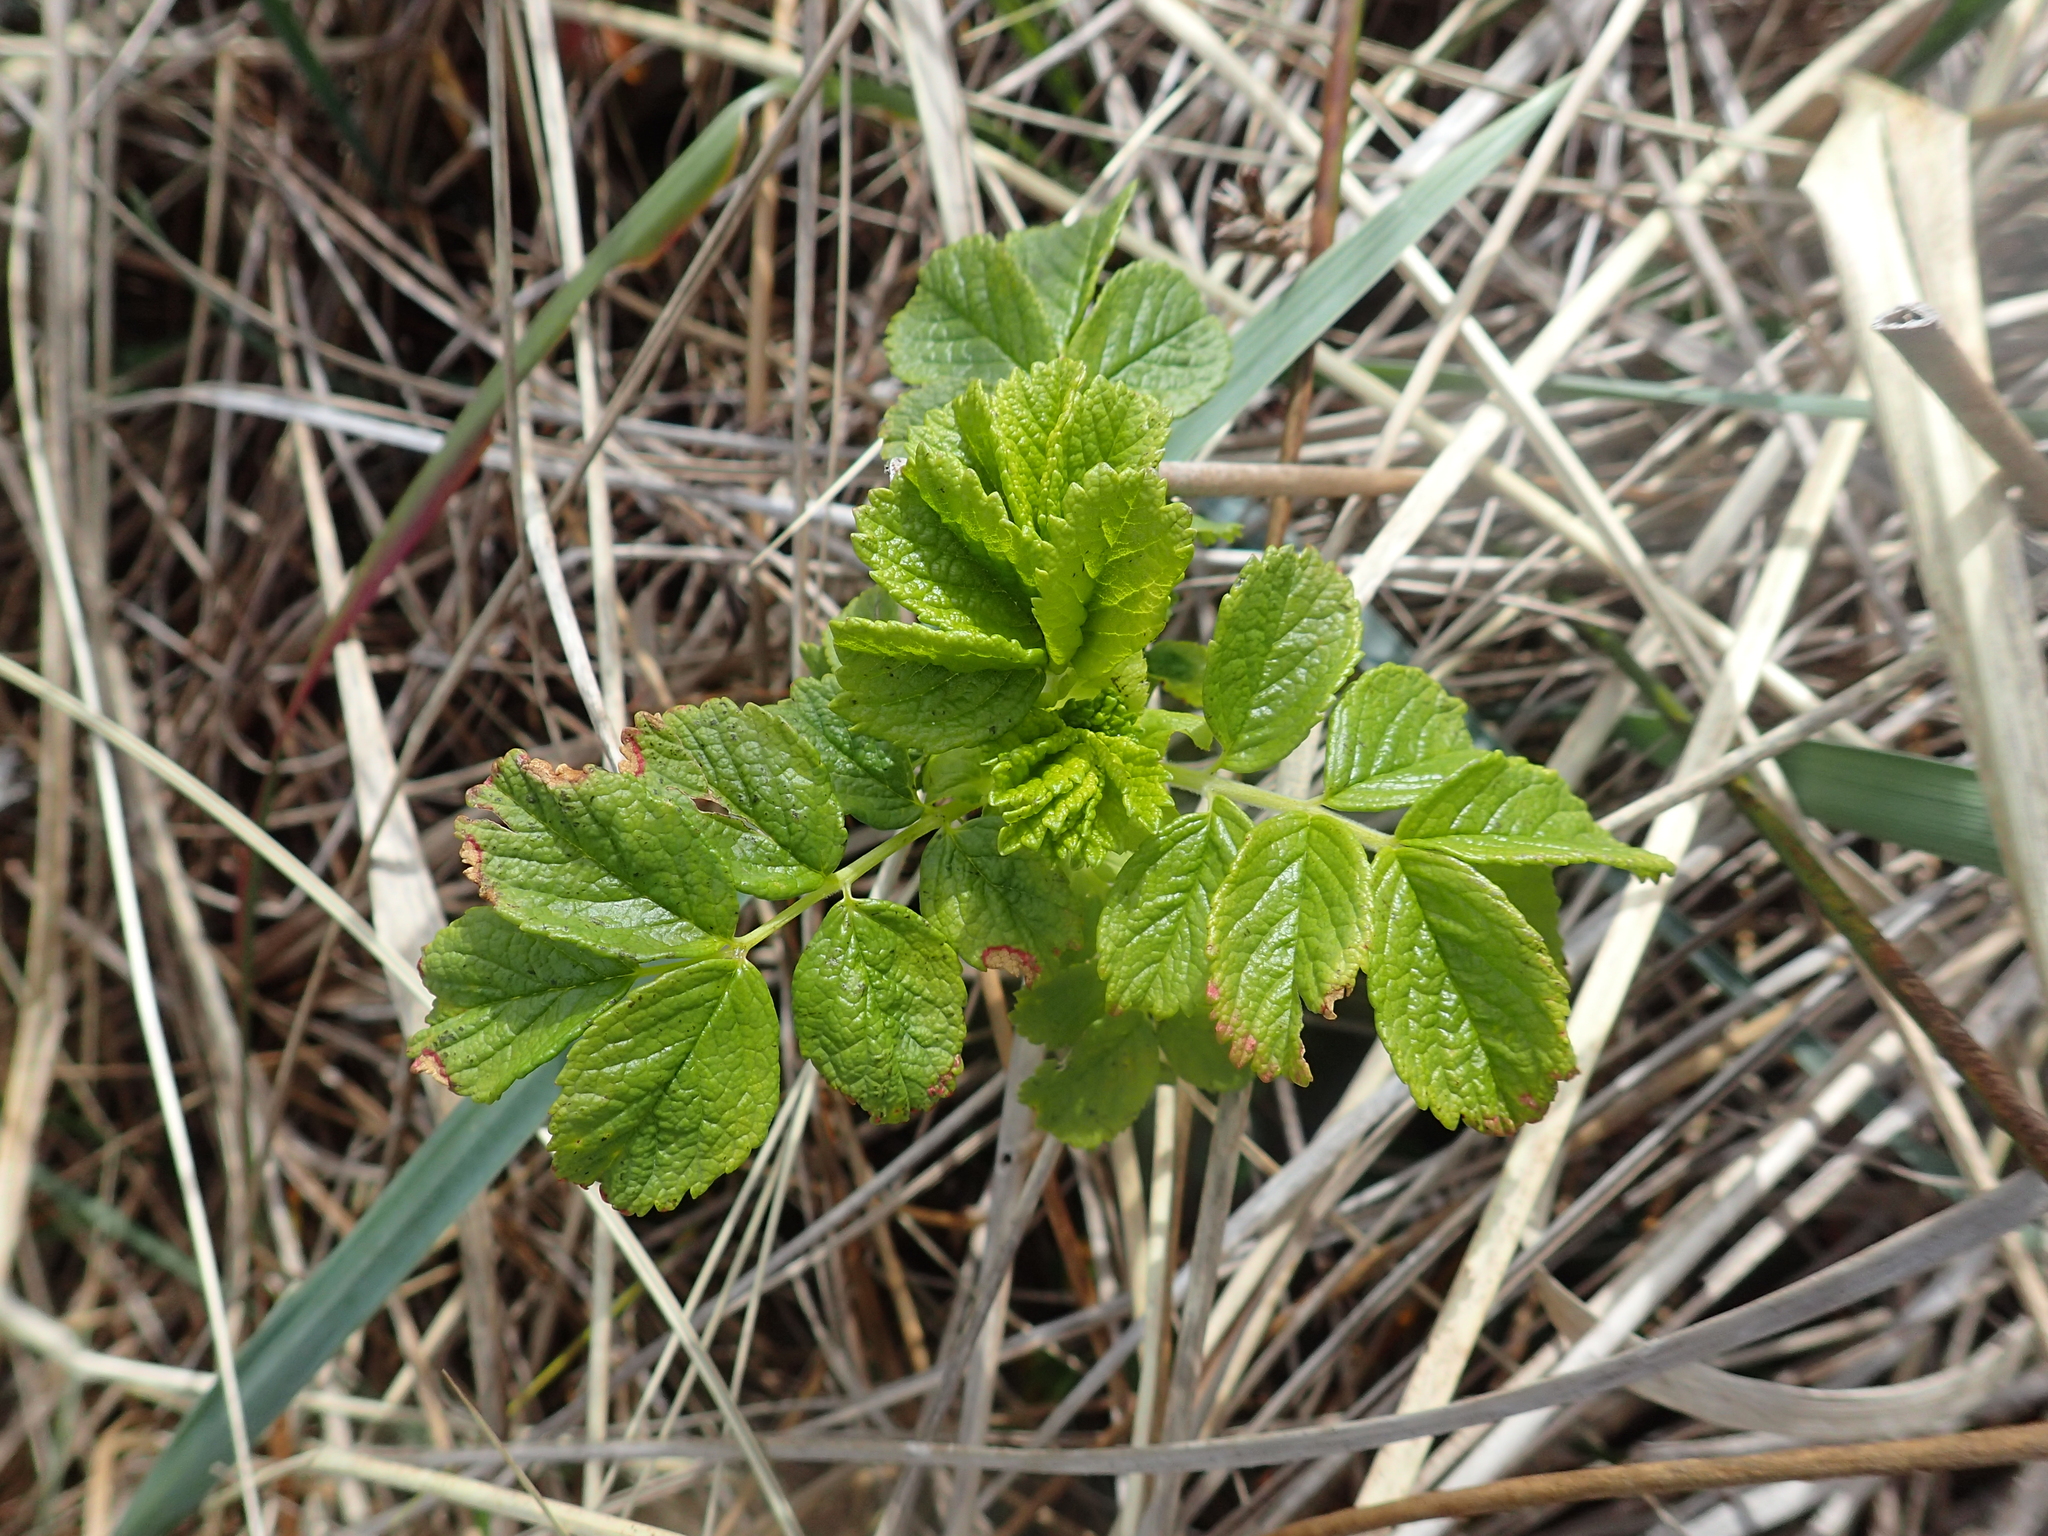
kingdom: Plantae
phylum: Tracheophyta
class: Magnoliopsida
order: Rosales
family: Rosaceae
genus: Rosa
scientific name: Rosa rugosa
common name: Japanese rose
